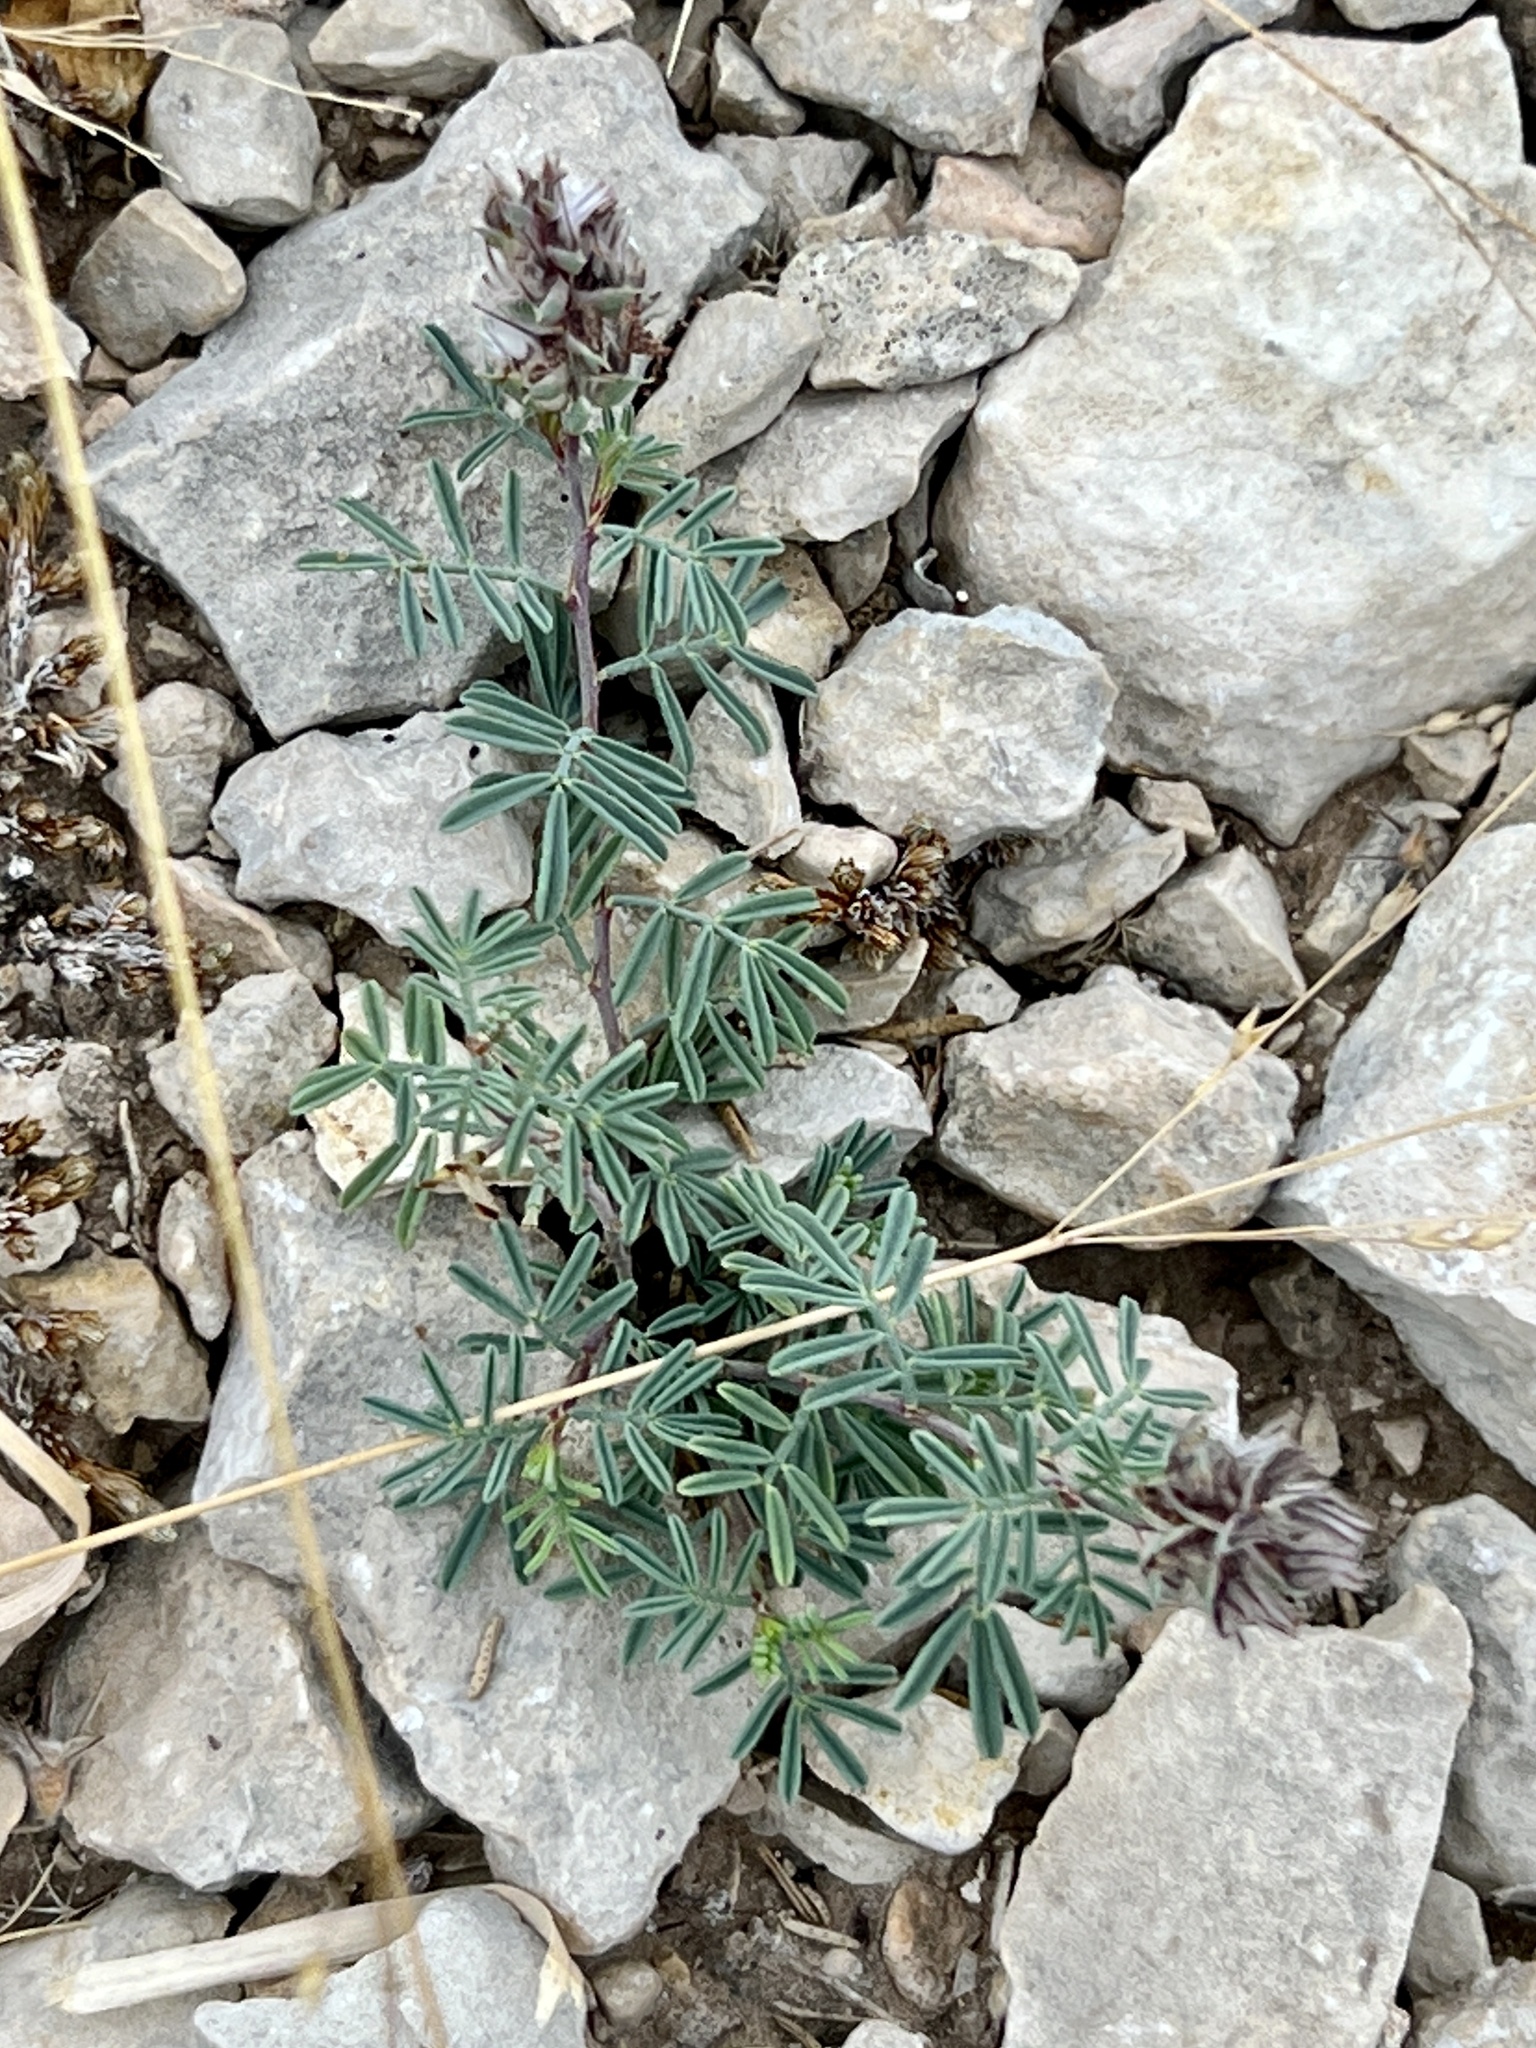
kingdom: Plantae
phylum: Tracheophyta
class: Magnoliopsida
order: Fabales
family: Fabaceae
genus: Dalea
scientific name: Dalea pogonathera
